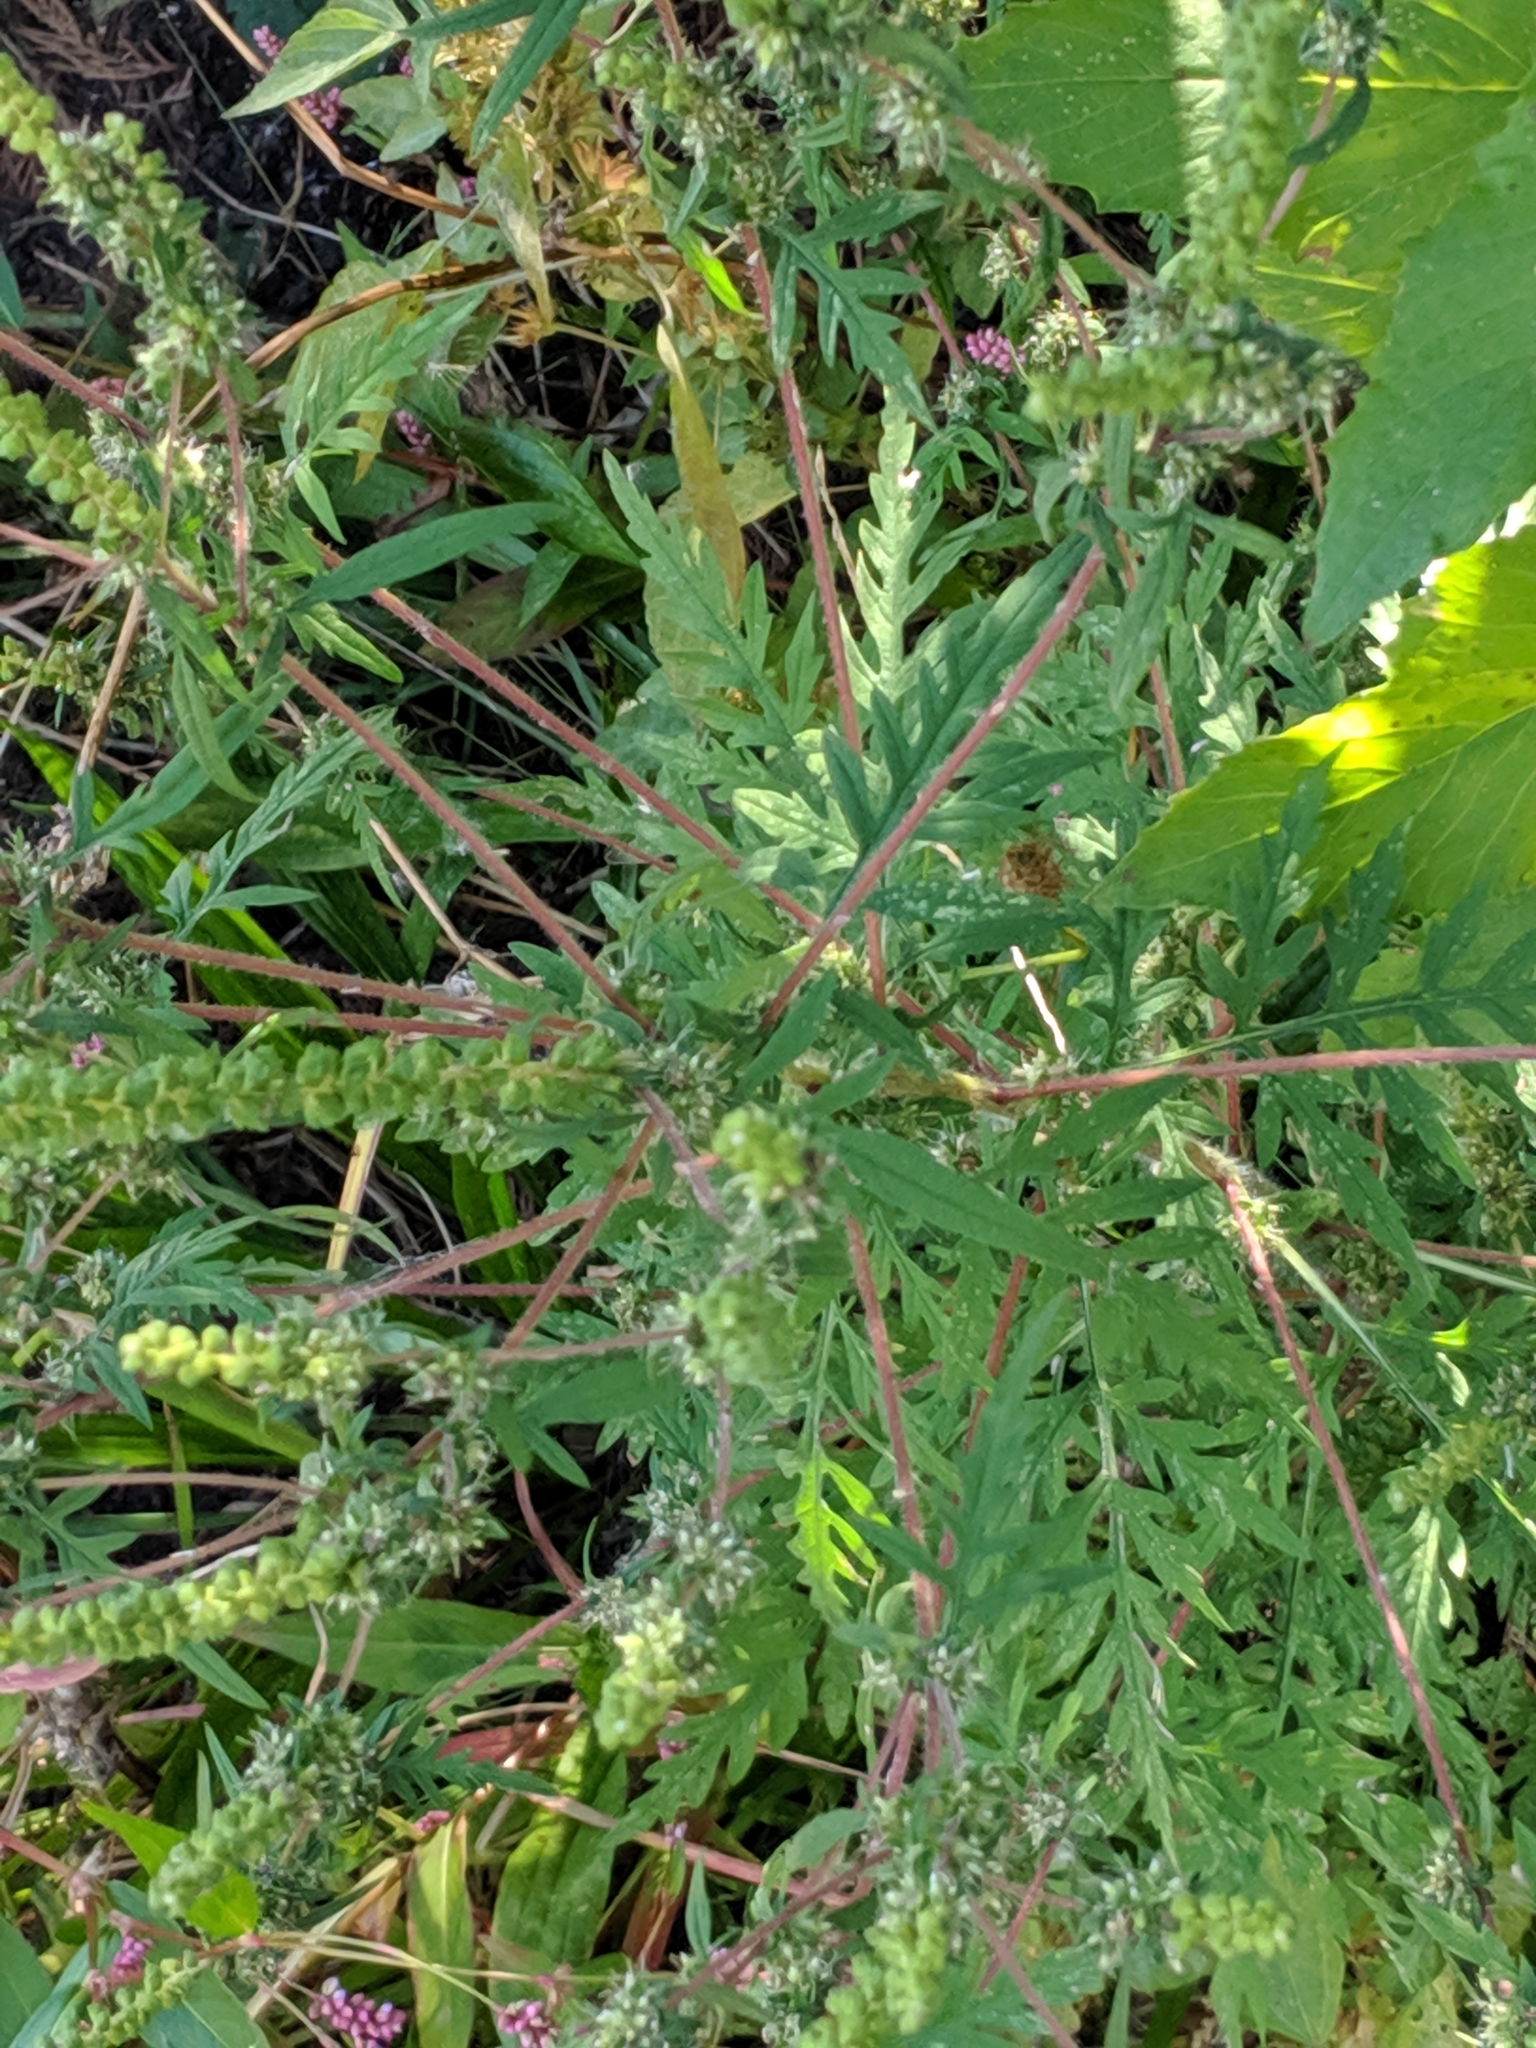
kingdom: Plantae
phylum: Tracheophyta
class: Magnoliopsida
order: Asterales
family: Asteraceae
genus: Ambrosia
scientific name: Ambrosia artemisiifolia
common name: Annual ragweed
